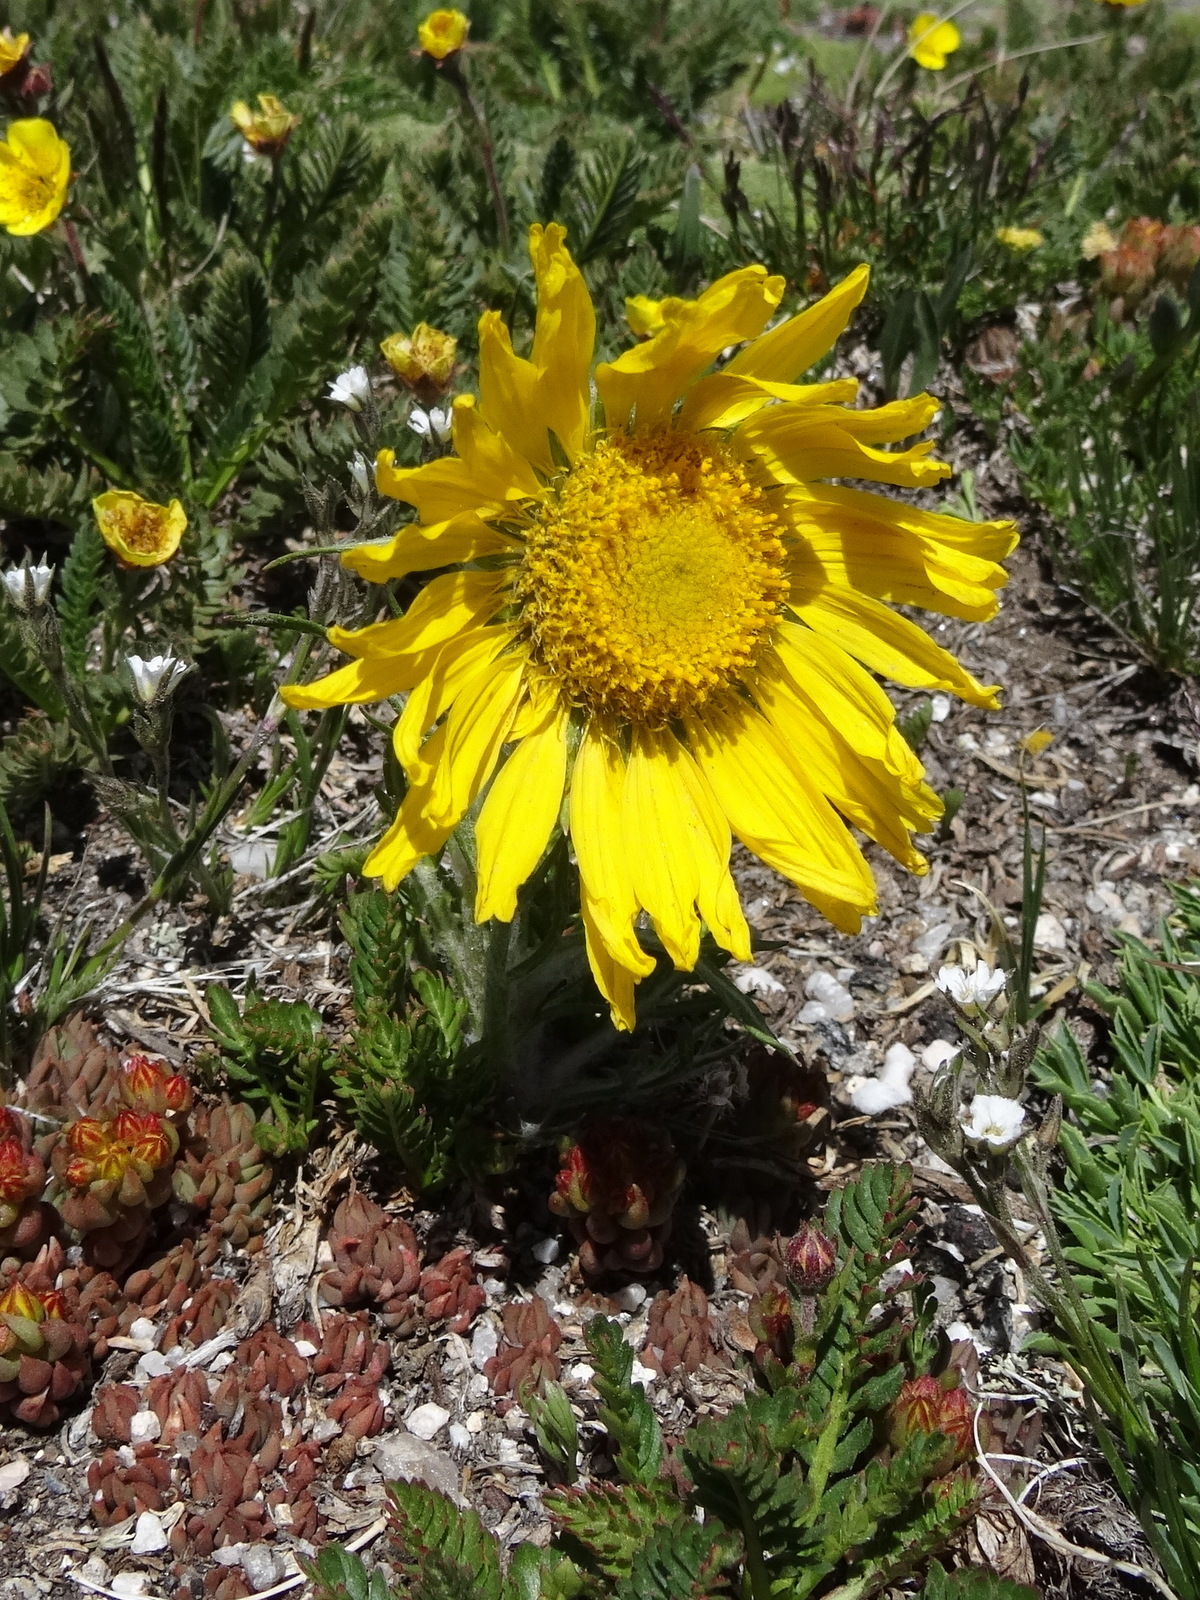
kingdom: Plantae
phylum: Tracheophyta
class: Magnoliopsida
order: Asterales
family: Asteraceae
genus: Hymenoxys
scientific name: Hymenoxys grandiflora
